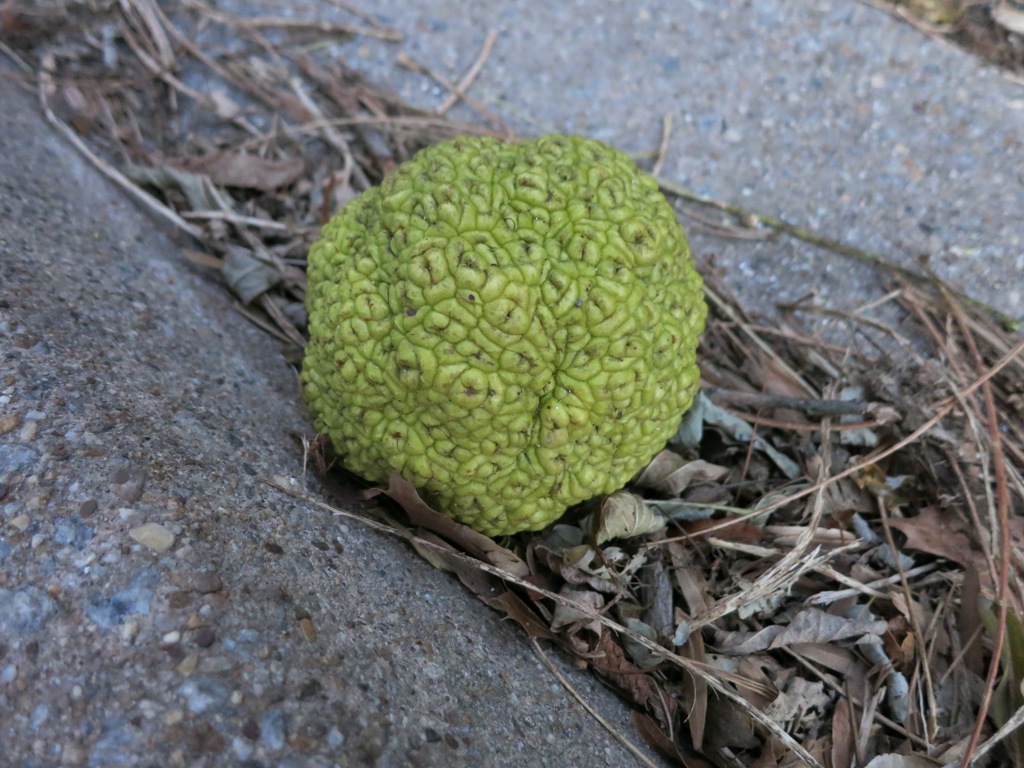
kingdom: Plantae
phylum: Tracheophyta
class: Magnoliopsida
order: Rosales
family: Moraceae
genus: Maclura
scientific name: Maclura pomifera
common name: Osage-orange
